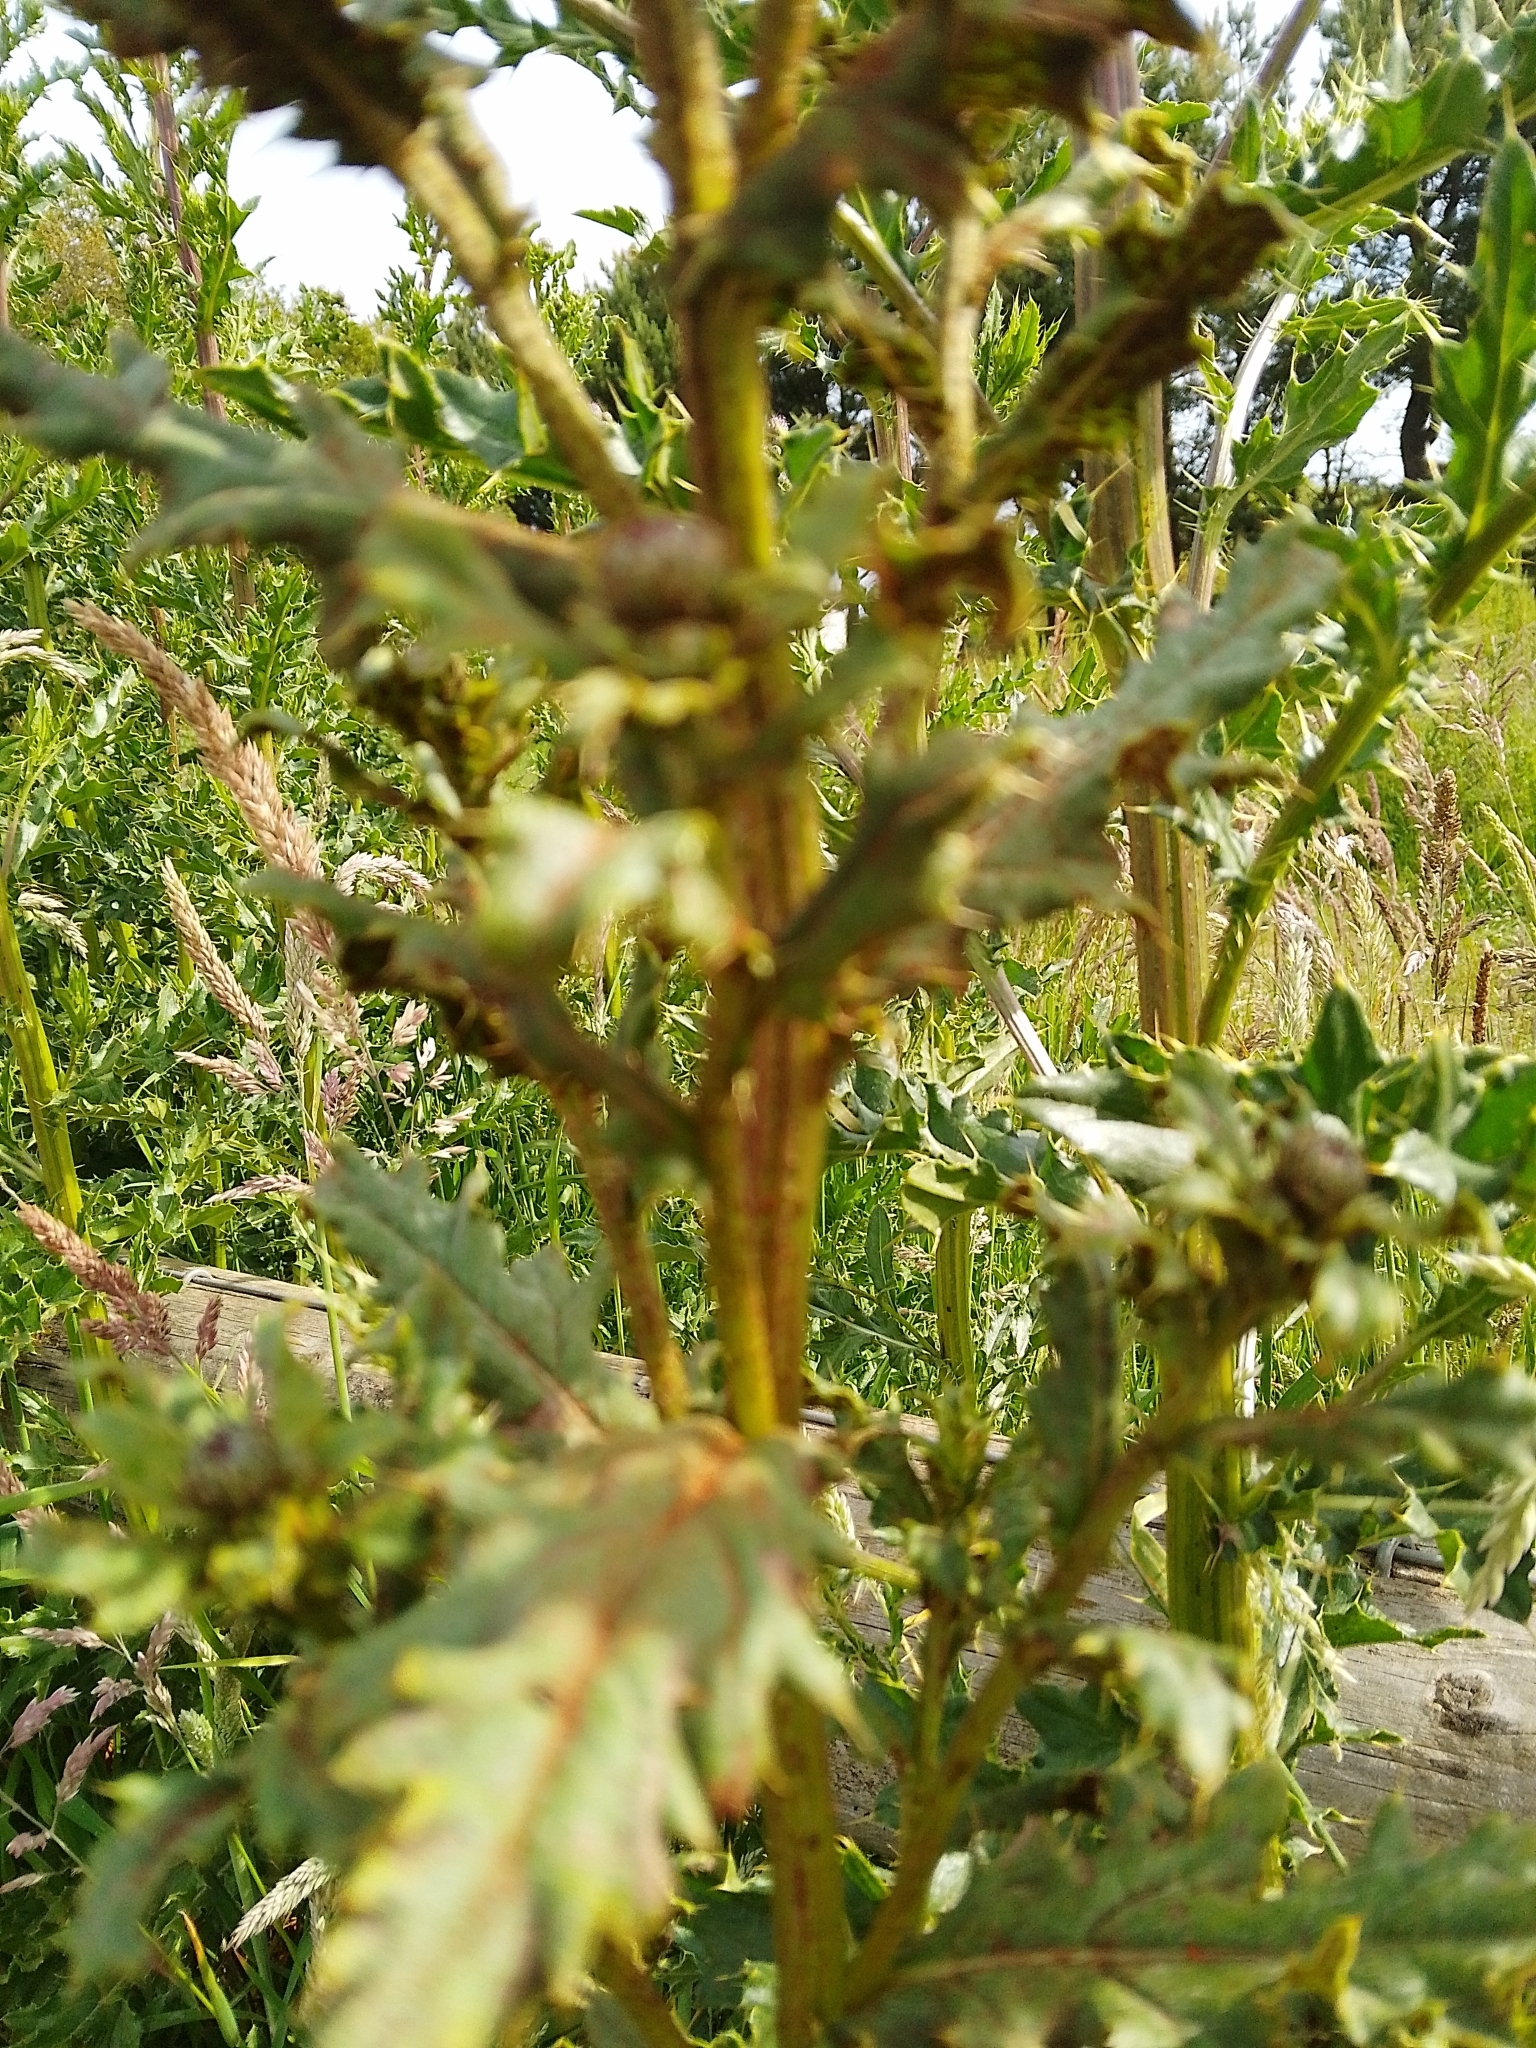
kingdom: Fungi
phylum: Basidiomycota
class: Pucciniomycetes
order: Pucciniales
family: Pucciniaceae
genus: Puccinia
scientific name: Puccinia suaveolens
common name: Thistle rust
